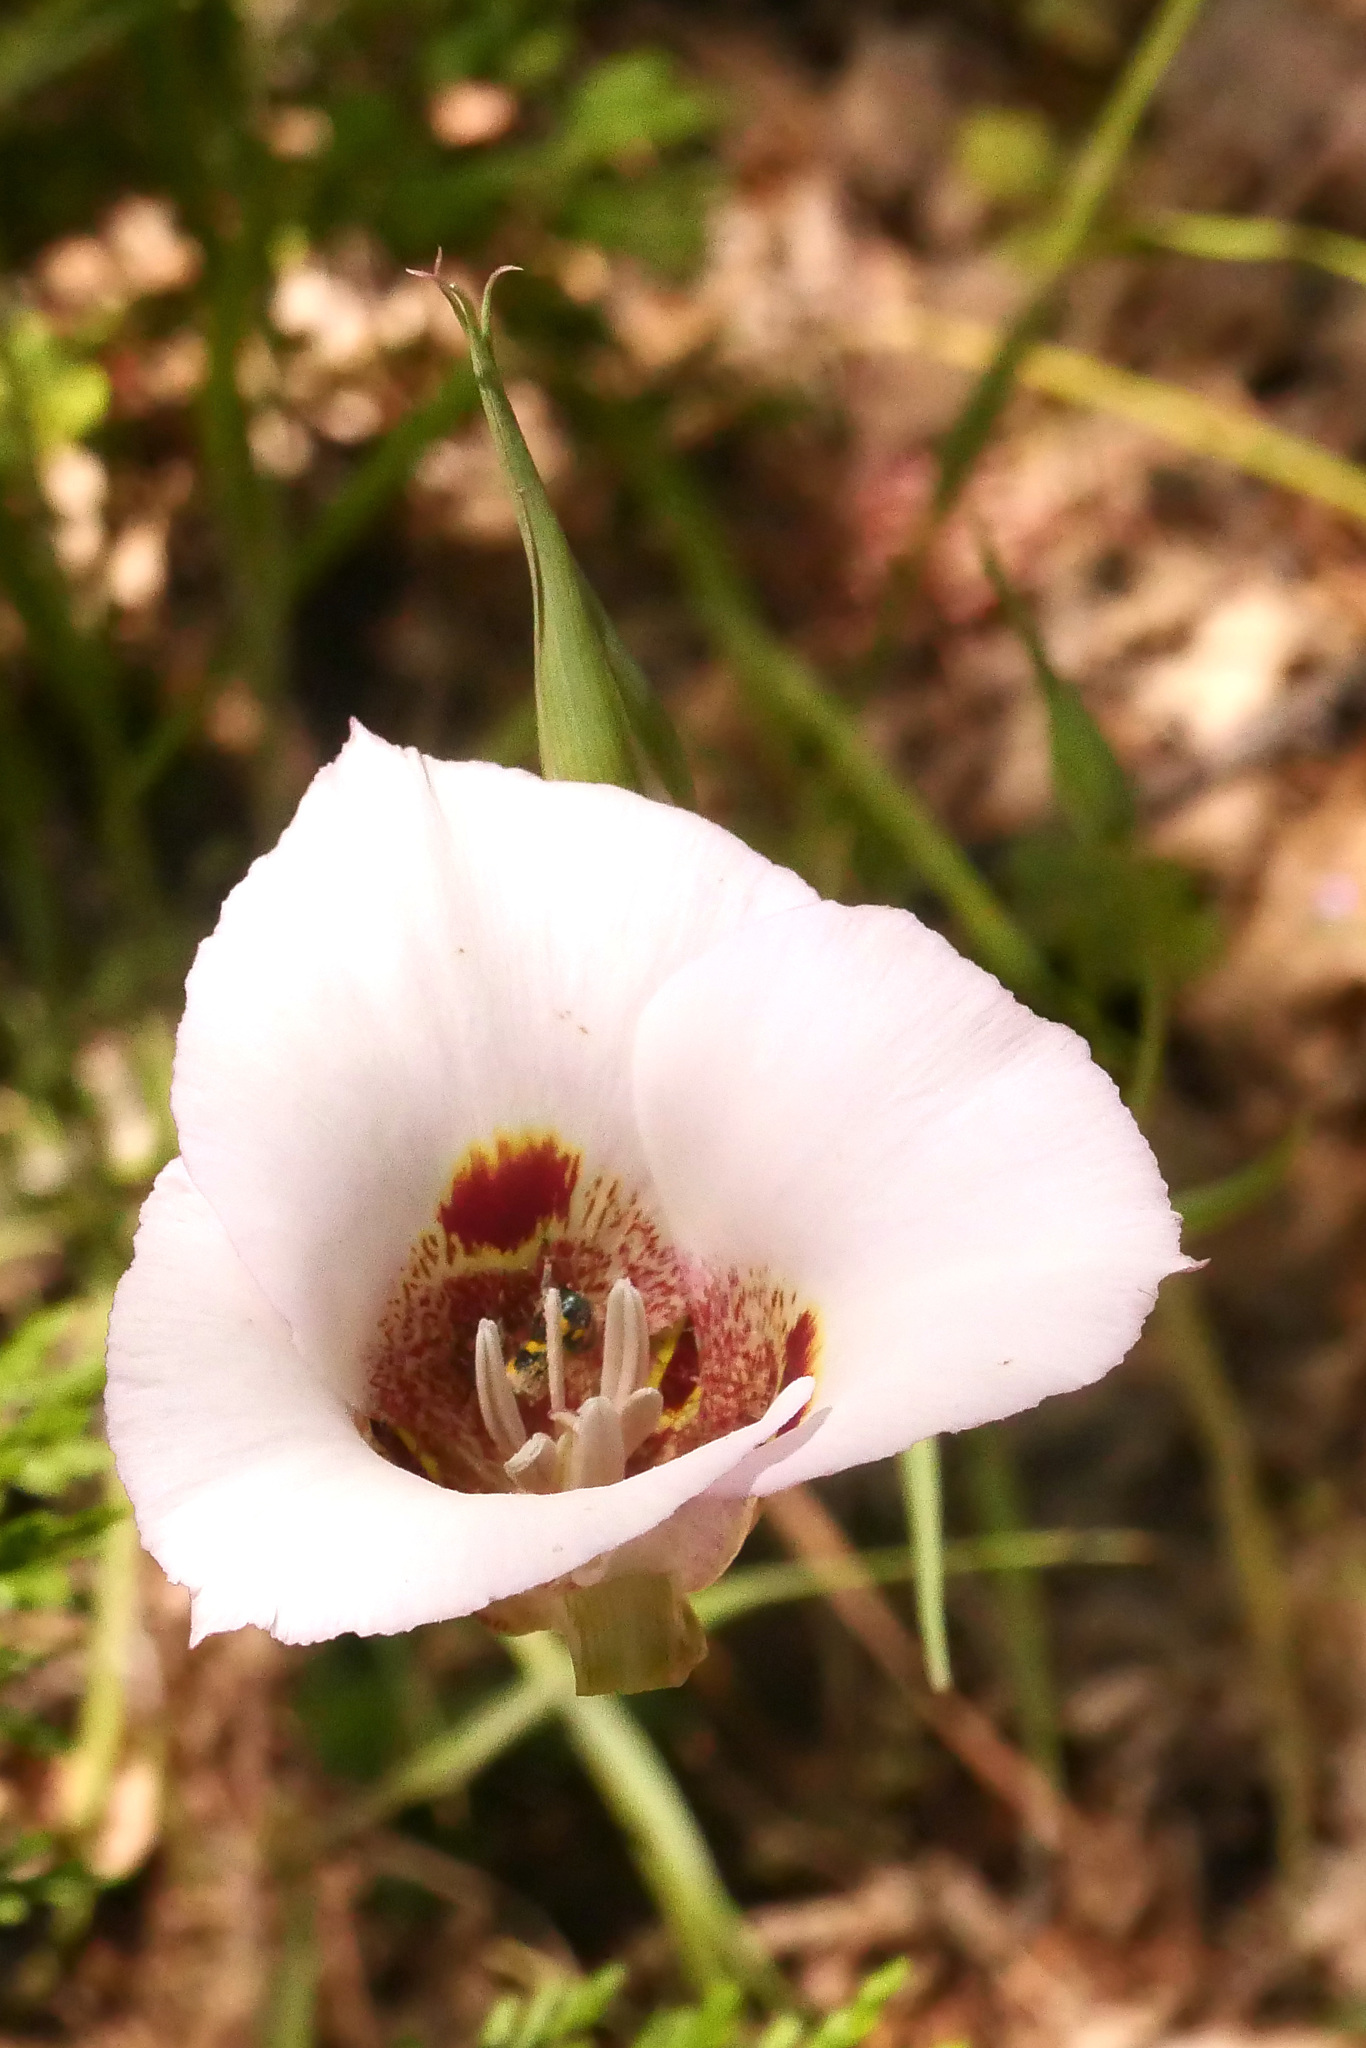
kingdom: Plantae
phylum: Tracheophyta
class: Liliopsida
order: Liliales
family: Liliaceae
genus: Calochortus
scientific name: Calochortus venustus
